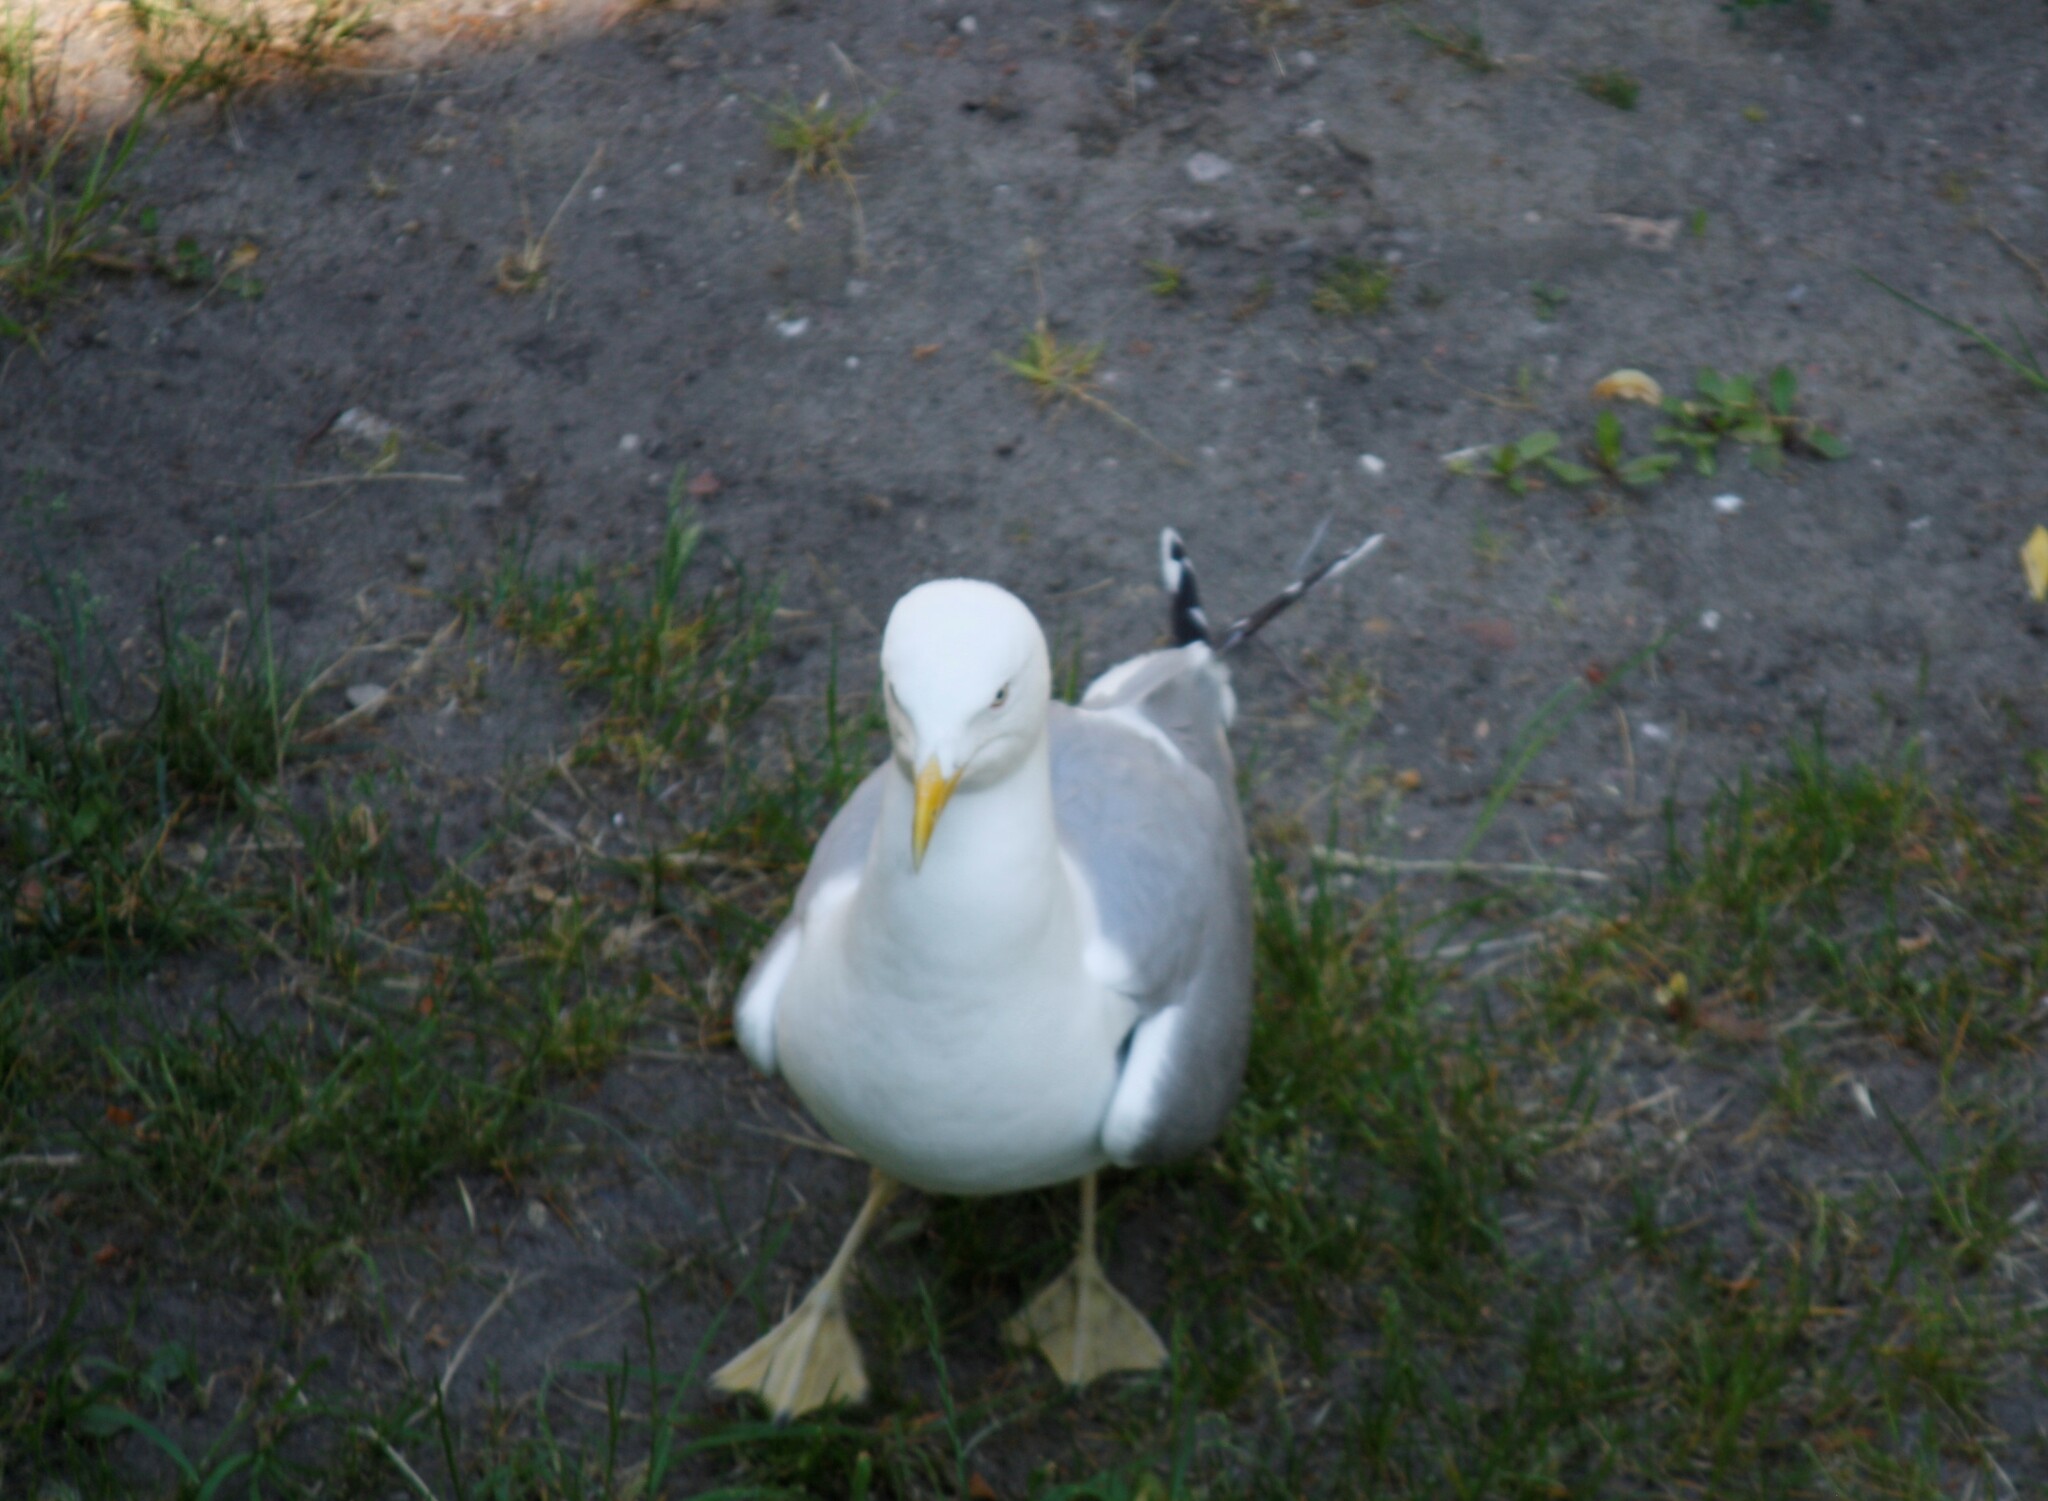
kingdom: Animalia
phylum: Chordata
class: Aves
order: Charadriiformes
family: Laridae
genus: Larus
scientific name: Larus argentatus
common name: Herring gull
